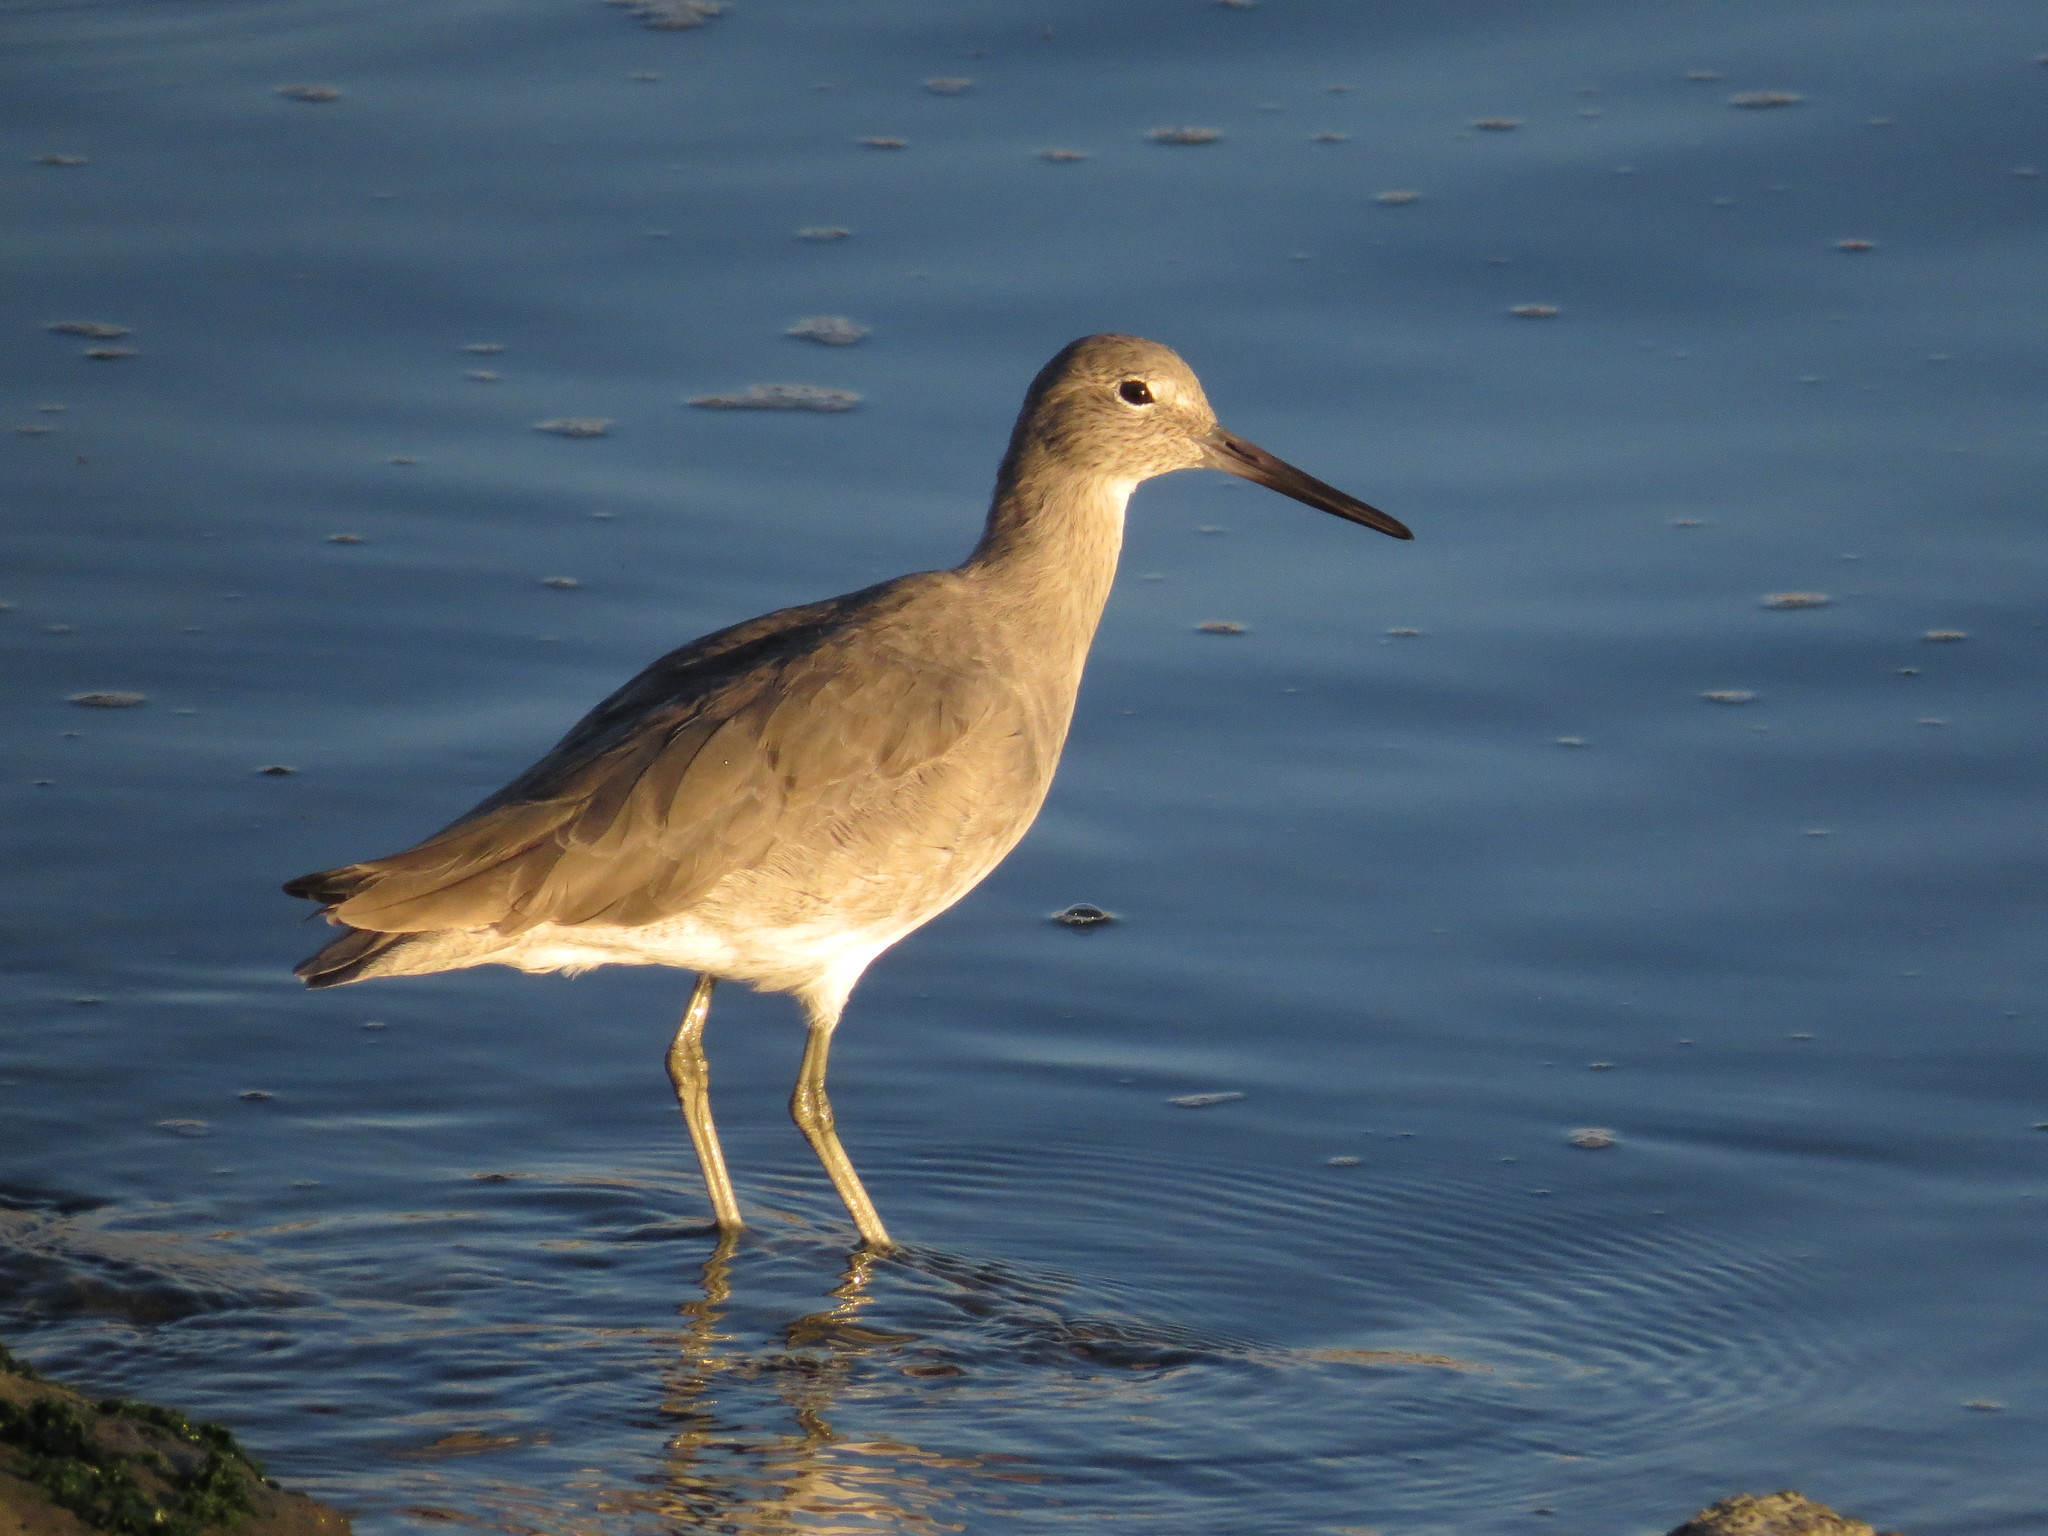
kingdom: Animalia
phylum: Chordata
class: Aves
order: Charadriiformes
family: Scolopacidae
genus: Tringa
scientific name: Tringa semipalmata
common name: Willet
